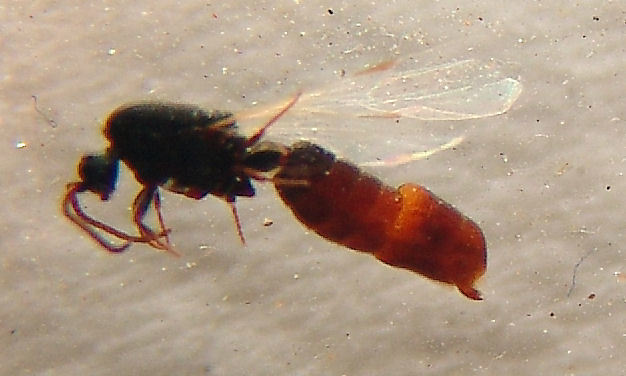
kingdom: Animalia
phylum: Arthropoda
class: Insecta
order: Hymenoptera
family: Formicidae
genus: Neivamyrmex
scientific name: Neivamyrmex mojave
